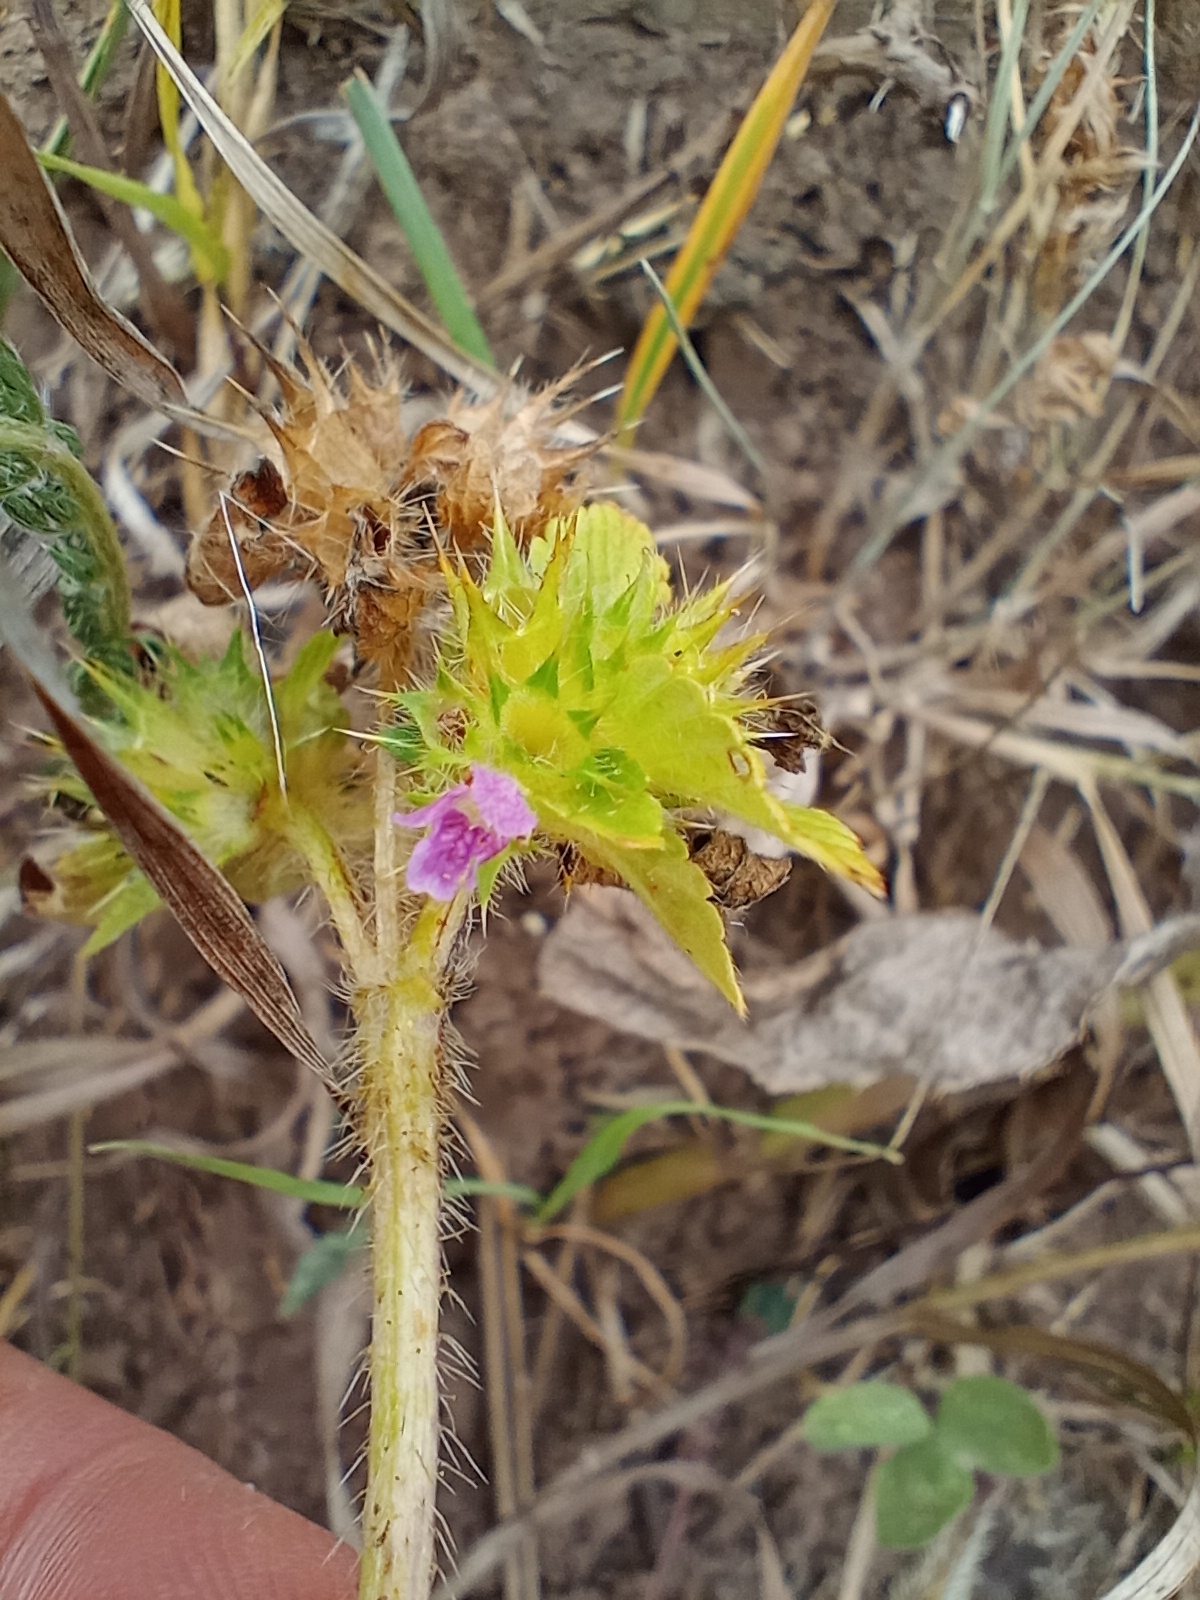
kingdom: Plantae
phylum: Tracheophyta
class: Magnoliopsida
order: Lamiales
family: Lamiaceae
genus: Galeopsis
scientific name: Galeopsis bifida
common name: Bifid hemp-nettle
